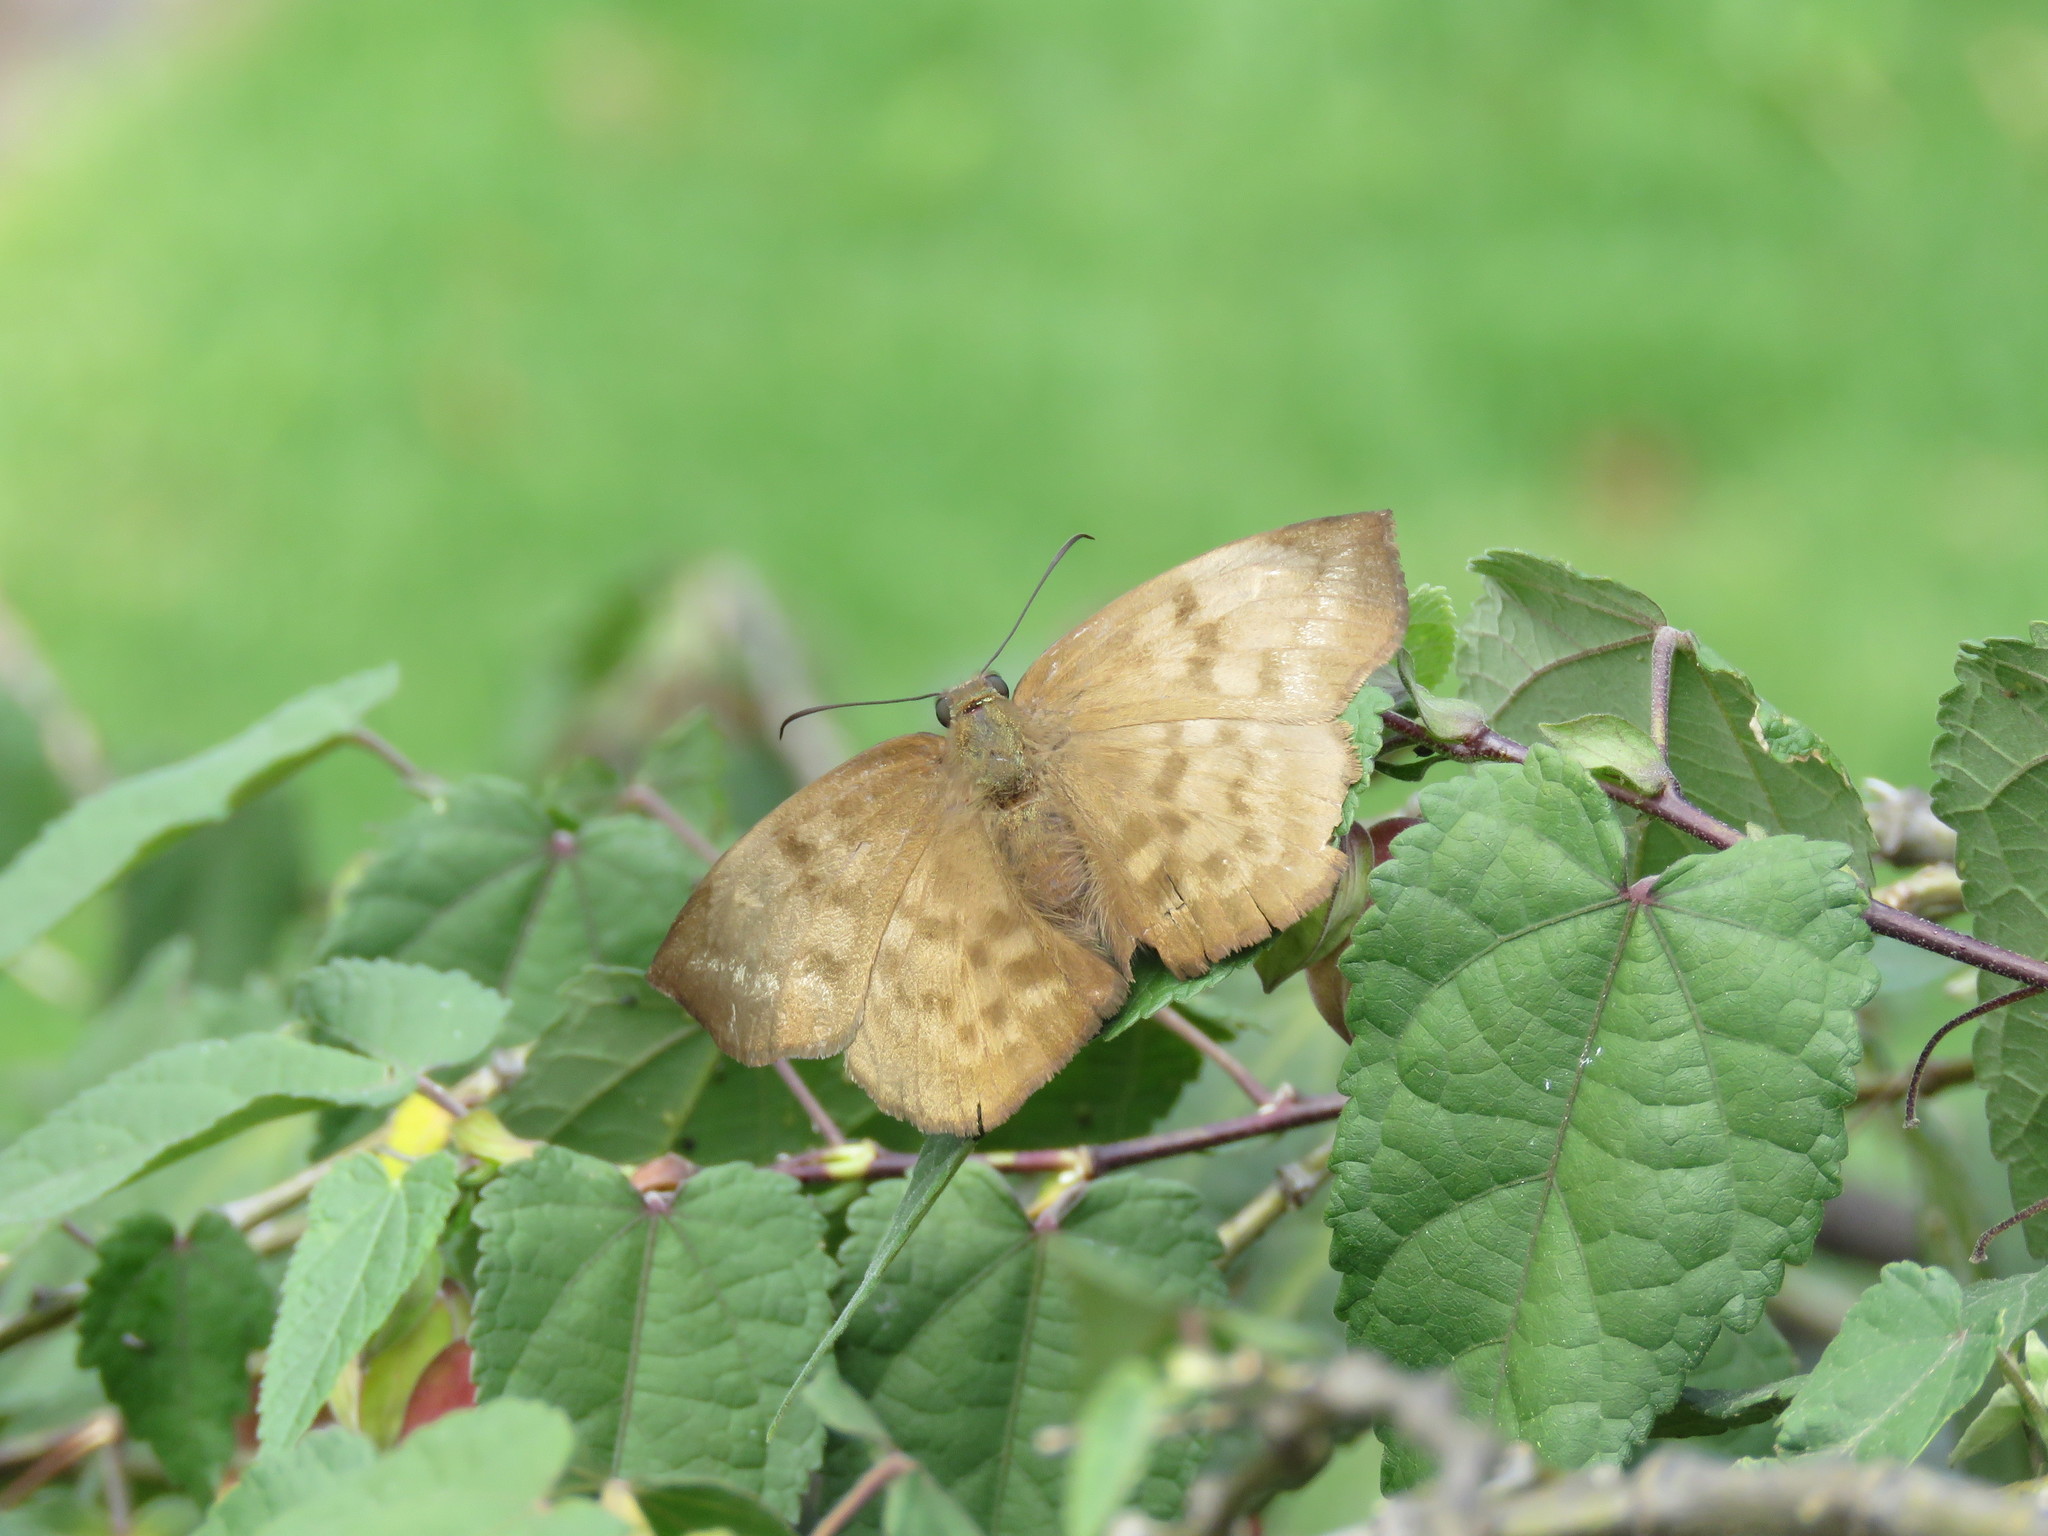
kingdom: Animalia
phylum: Arthropoda
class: Insecta
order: Lepidoptera
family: Hesperiidae
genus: Achlyodes
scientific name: Achlyodes pallida
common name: Pale sicklewing
